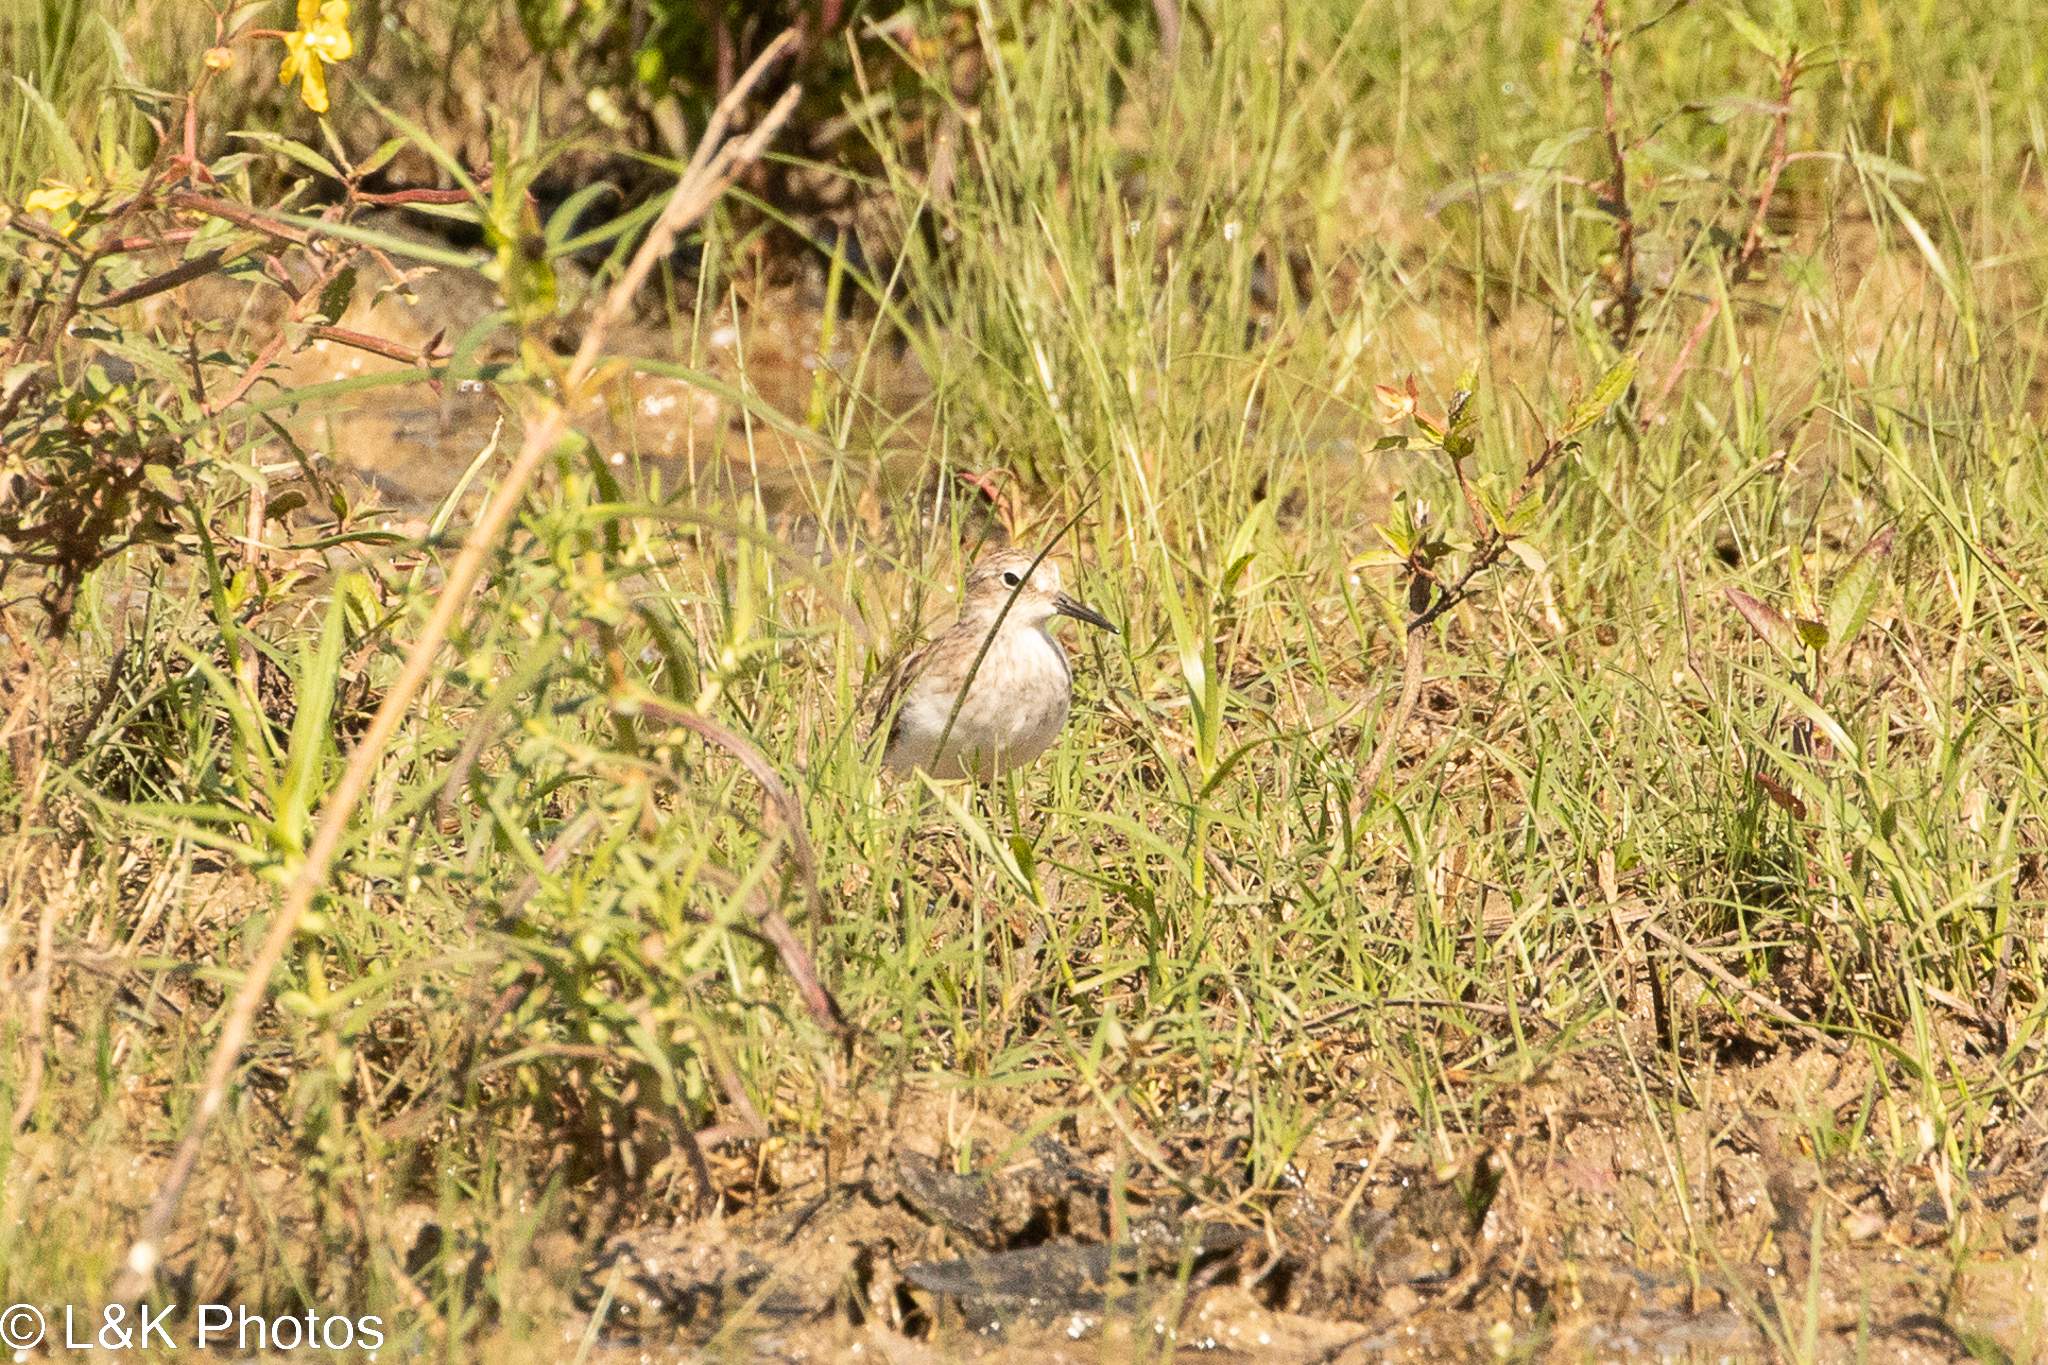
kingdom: Animalia
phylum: Chordata
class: Aves
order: Charadriiformes
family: Scolopacidae
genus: Calidris
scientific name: Calidris minutilla
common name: Least sandpiper
